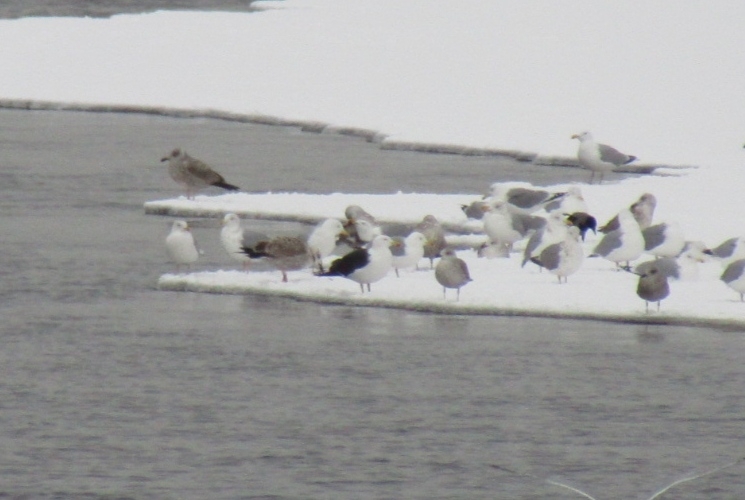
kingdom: Animalia
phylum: Chordata
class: Aves
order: Charadriiformes
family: Laridae
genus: Larus
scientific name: Larus fuscus
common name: Lesser black-backed gull
